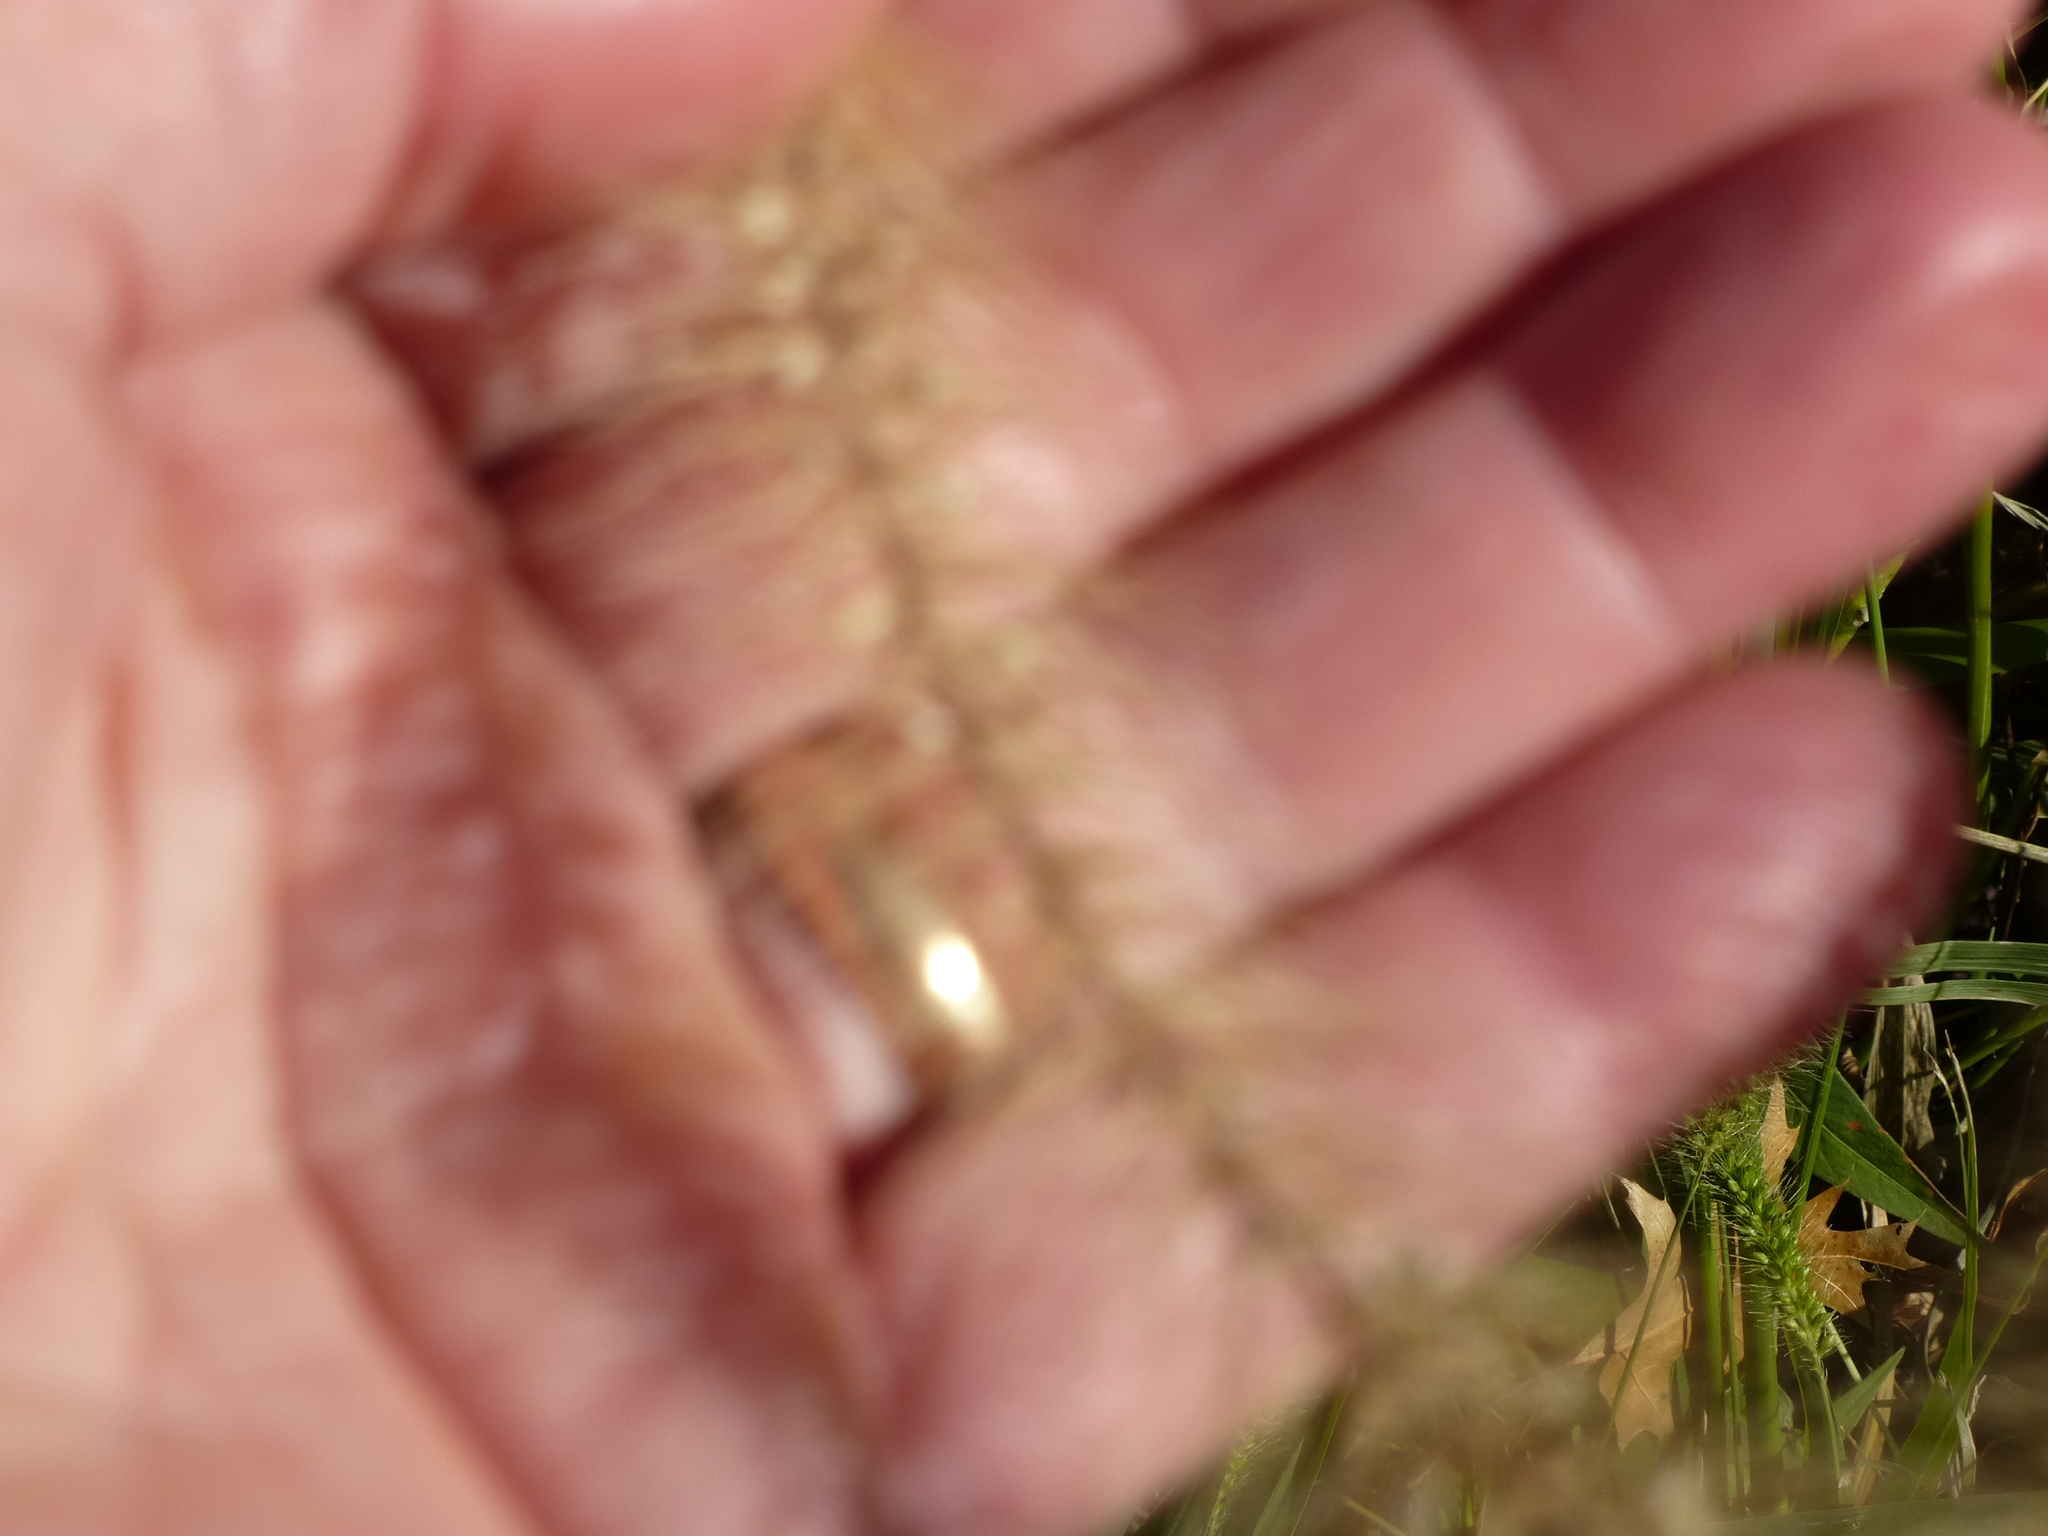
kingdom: Plantae
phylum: Tracheophyta
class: Liliopsida
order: Poales
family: Poaceae
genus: Setaria
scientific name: Setaria faberi
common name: Nodding bristle-grass
